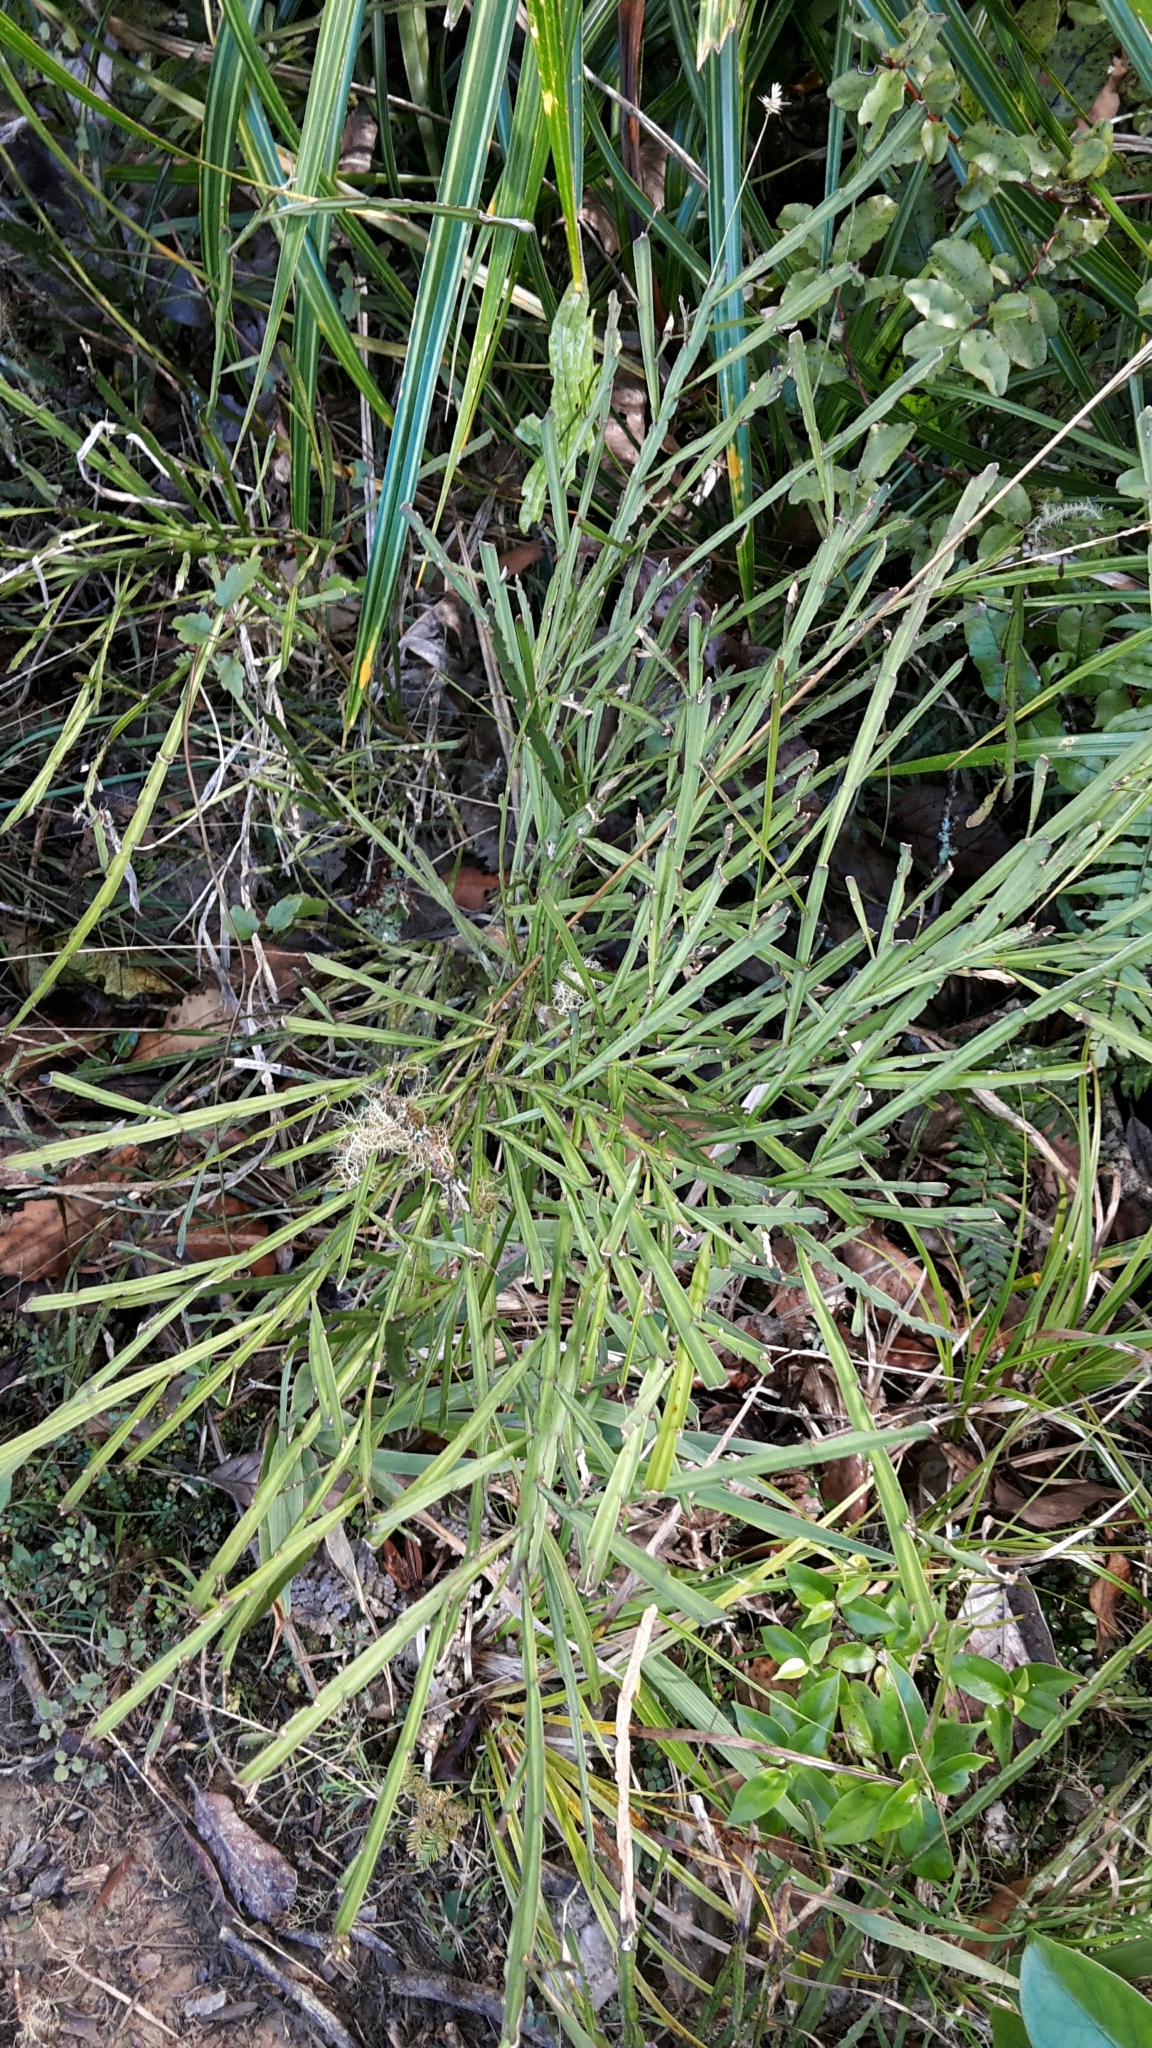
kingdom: Plantae
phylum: Tracheophyta
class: Magnoliopsida
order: Fabales
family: Fabaceae
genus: Carmichaelia
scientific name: Carmichaelia australis
